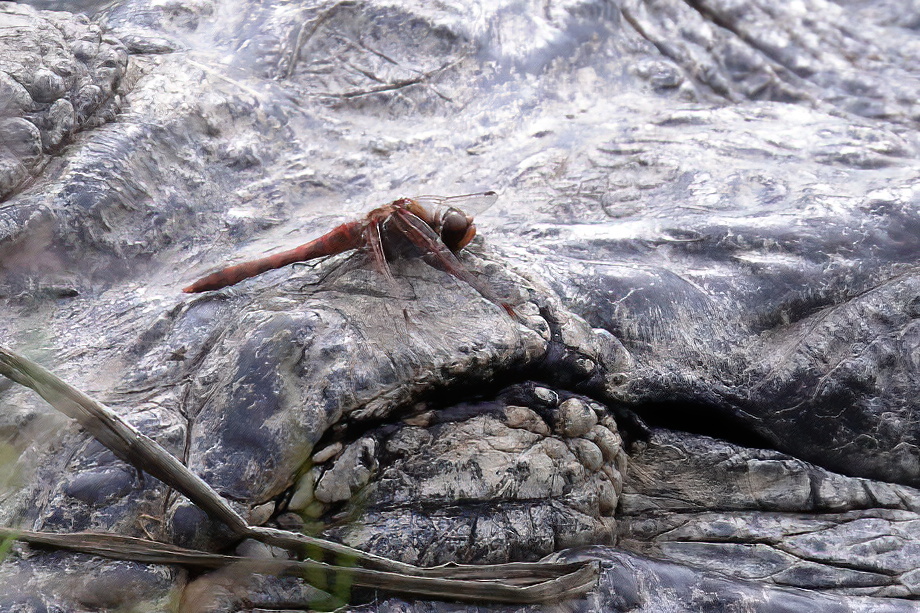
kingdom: Animalia
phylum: Arthropoda
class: Insecta
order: Odonata
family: Libellulidae
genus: Sympetrum
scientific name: Sympetrum corruptum
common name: Variegated meadowhawk
